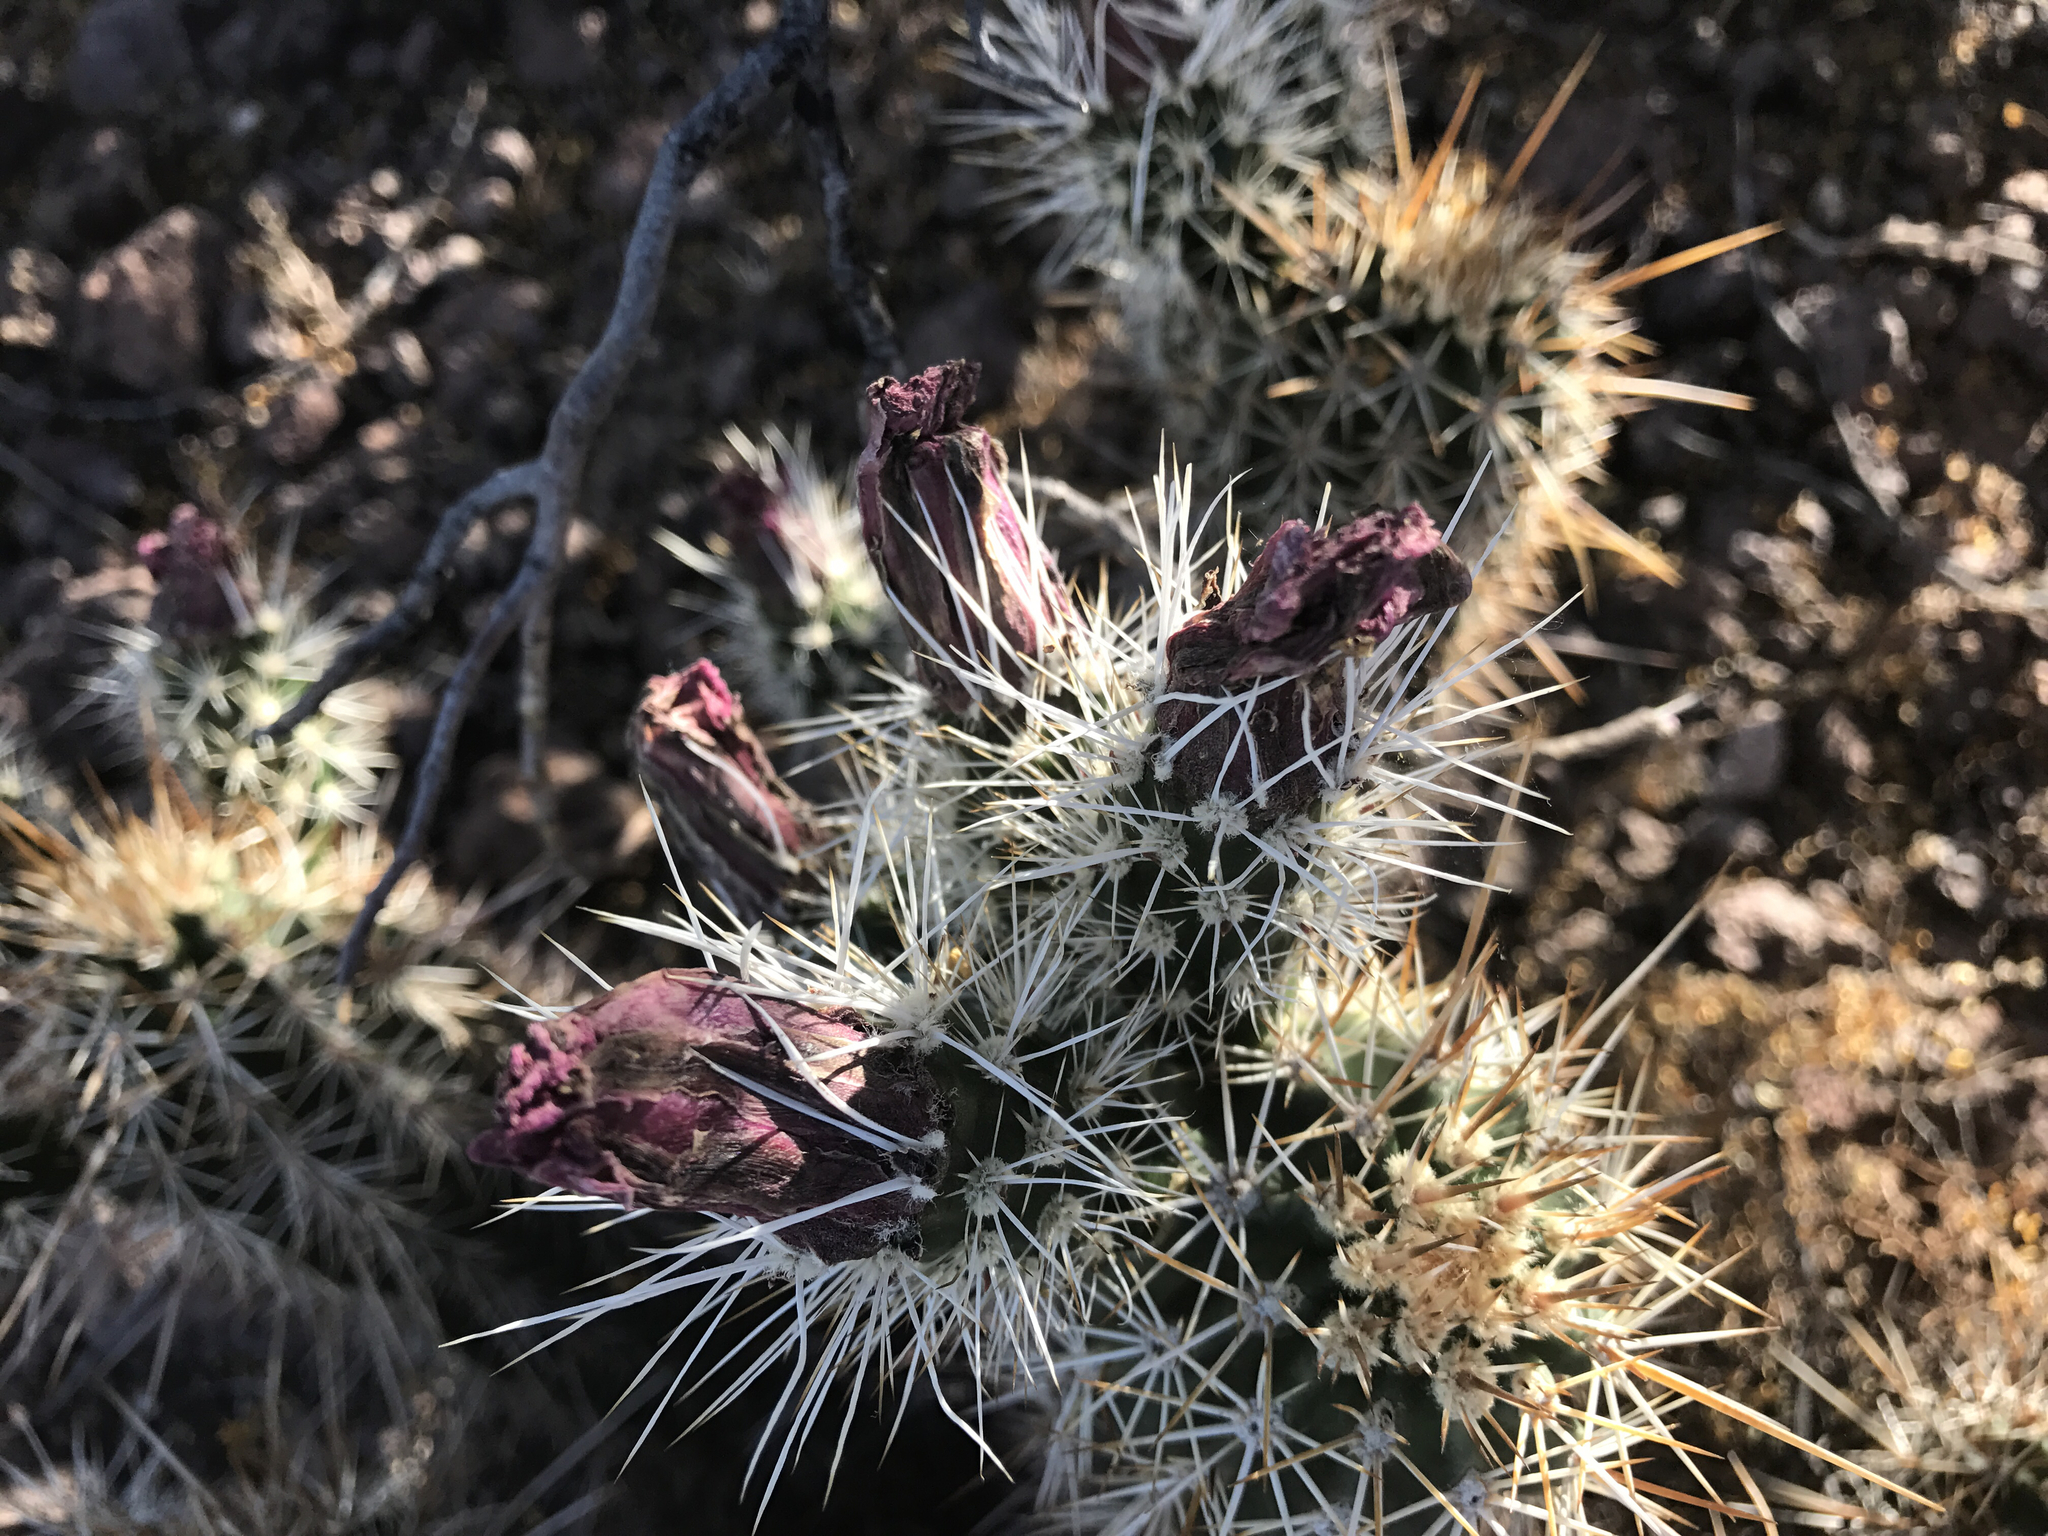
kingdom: Plantae
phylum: Tracheophyta
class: Magnoliopsida
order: Caryophyllales
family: Cactaceae
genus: Echinocereus
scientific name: Echinocereus fasciculatus
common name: Bundle hedgehog
